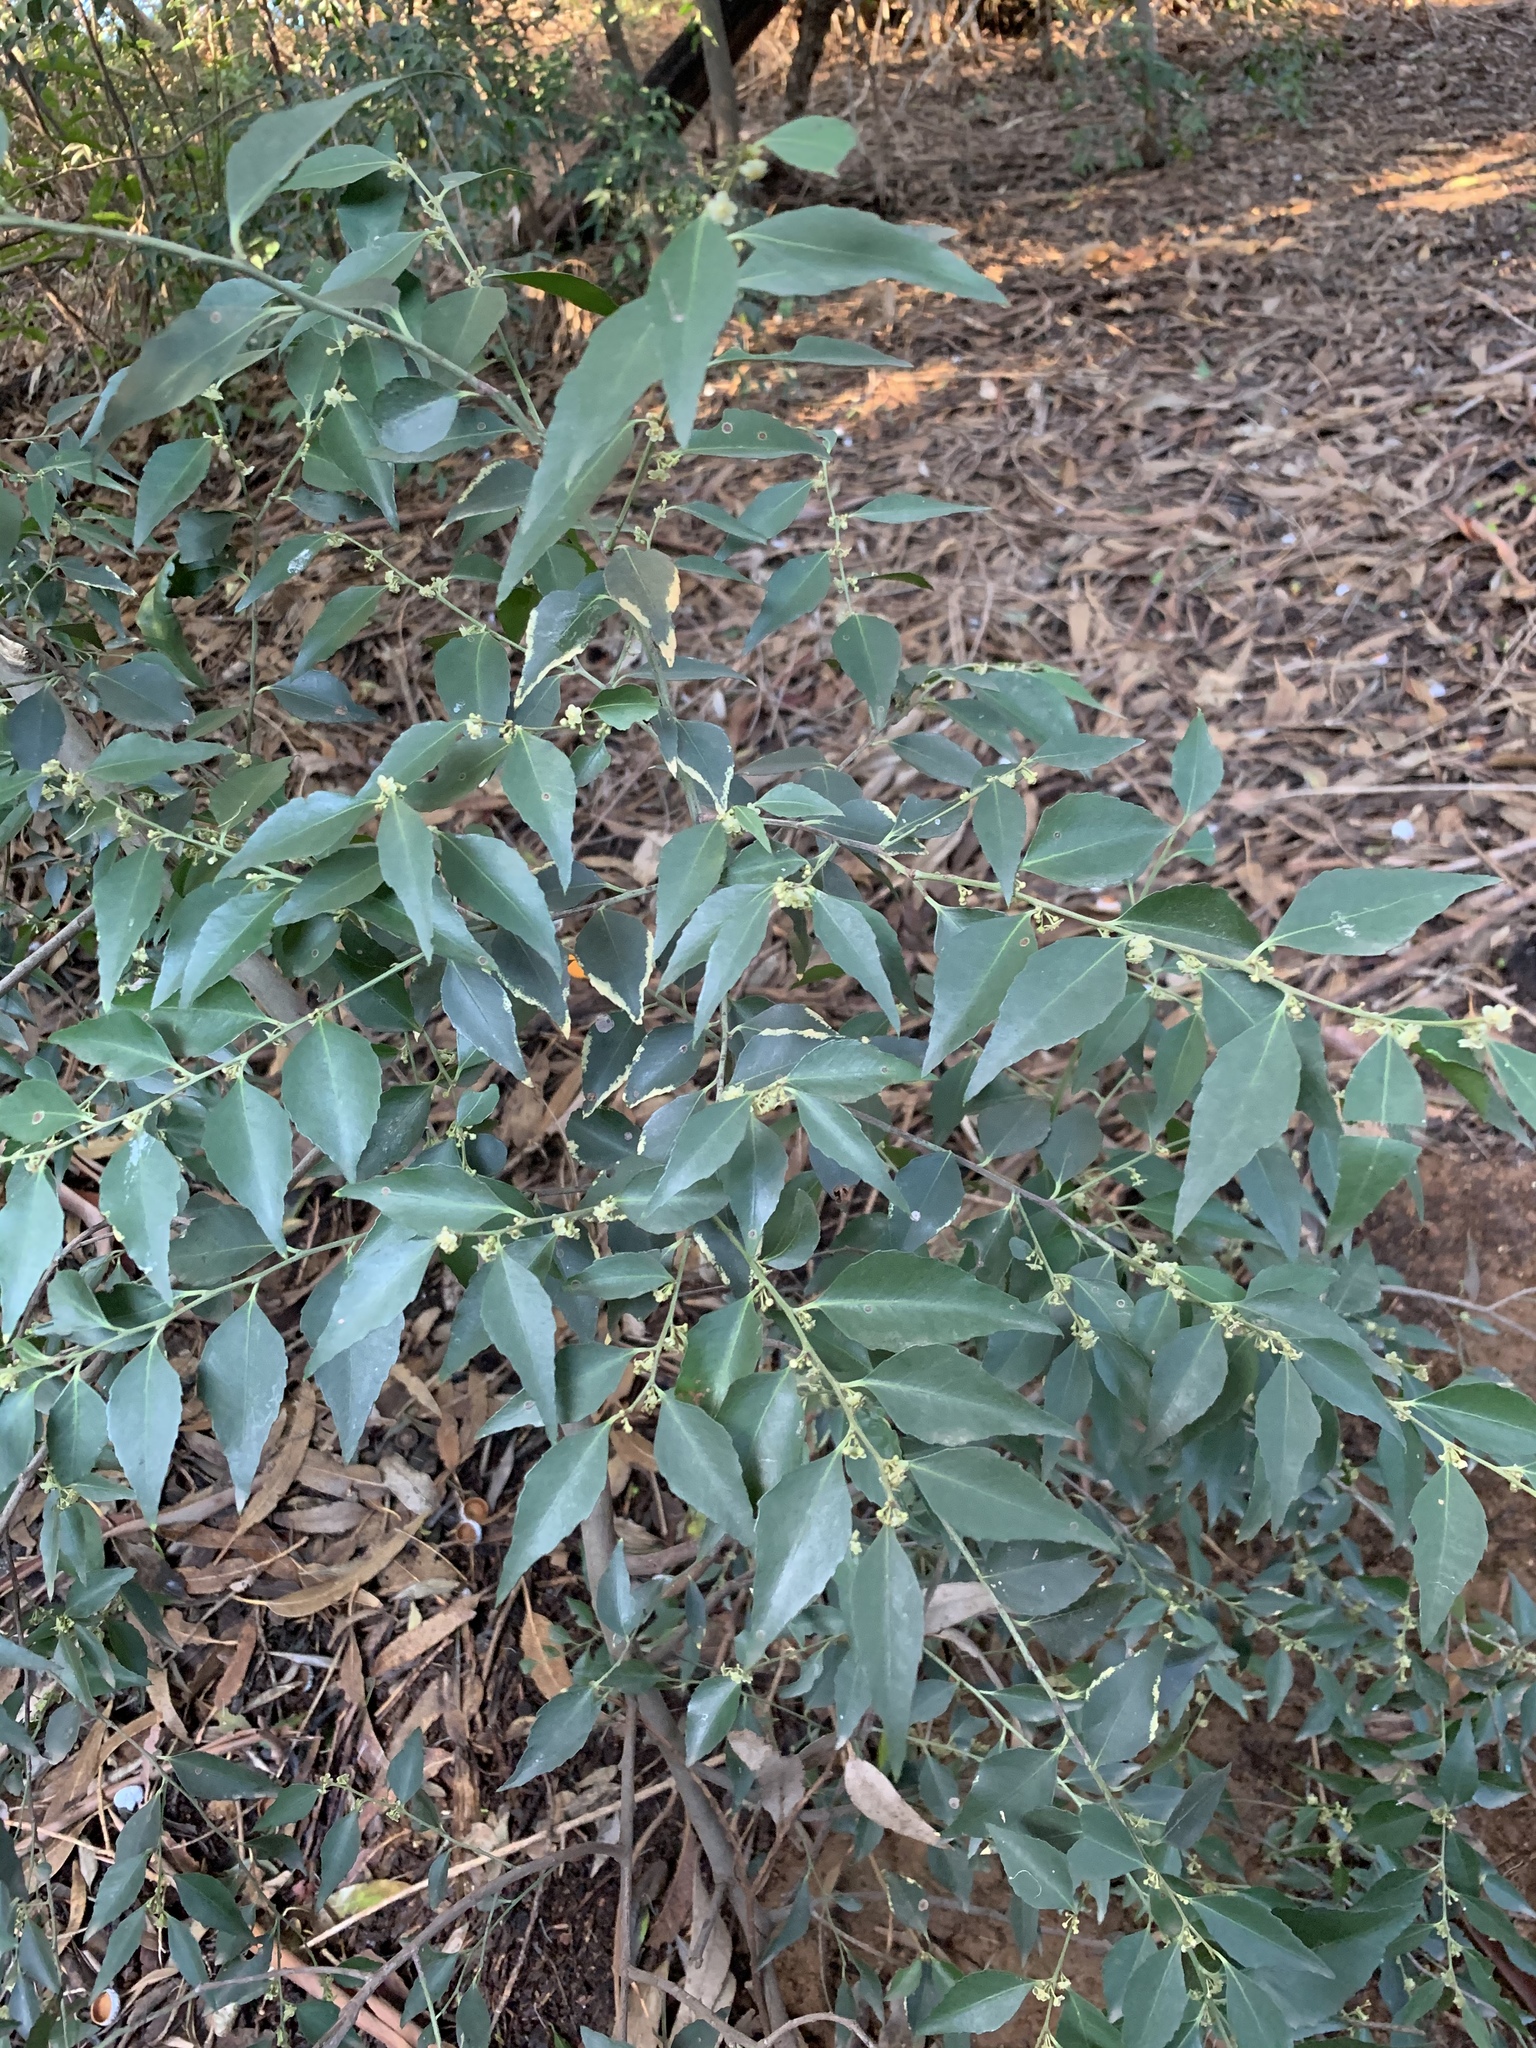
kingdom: Plantae
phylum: Tracheophyta
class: Magnoliopsida
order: Celastrales
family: Celastraceae
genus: Gymnosporia
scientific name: Gymnosporia acuminata
